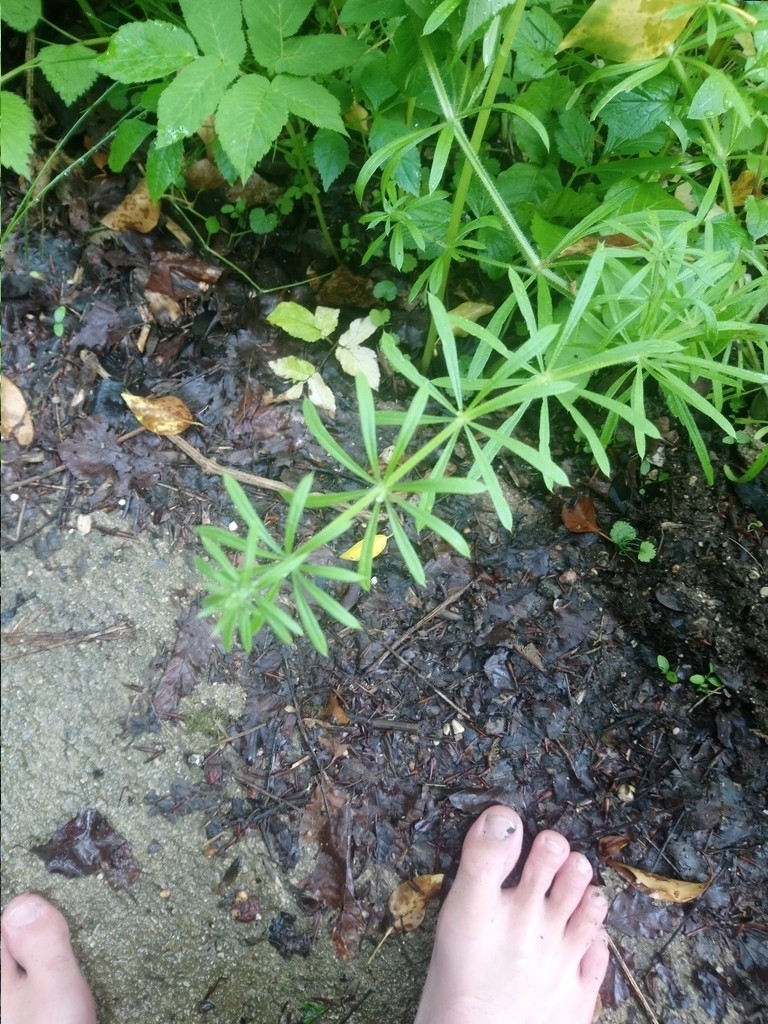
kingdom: Plantae
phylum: Tracheophyta
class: Magnoliopsida
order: Gentianales
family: Rubiaceae
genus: Galium
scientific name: Galium aparine
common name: Cleavers
